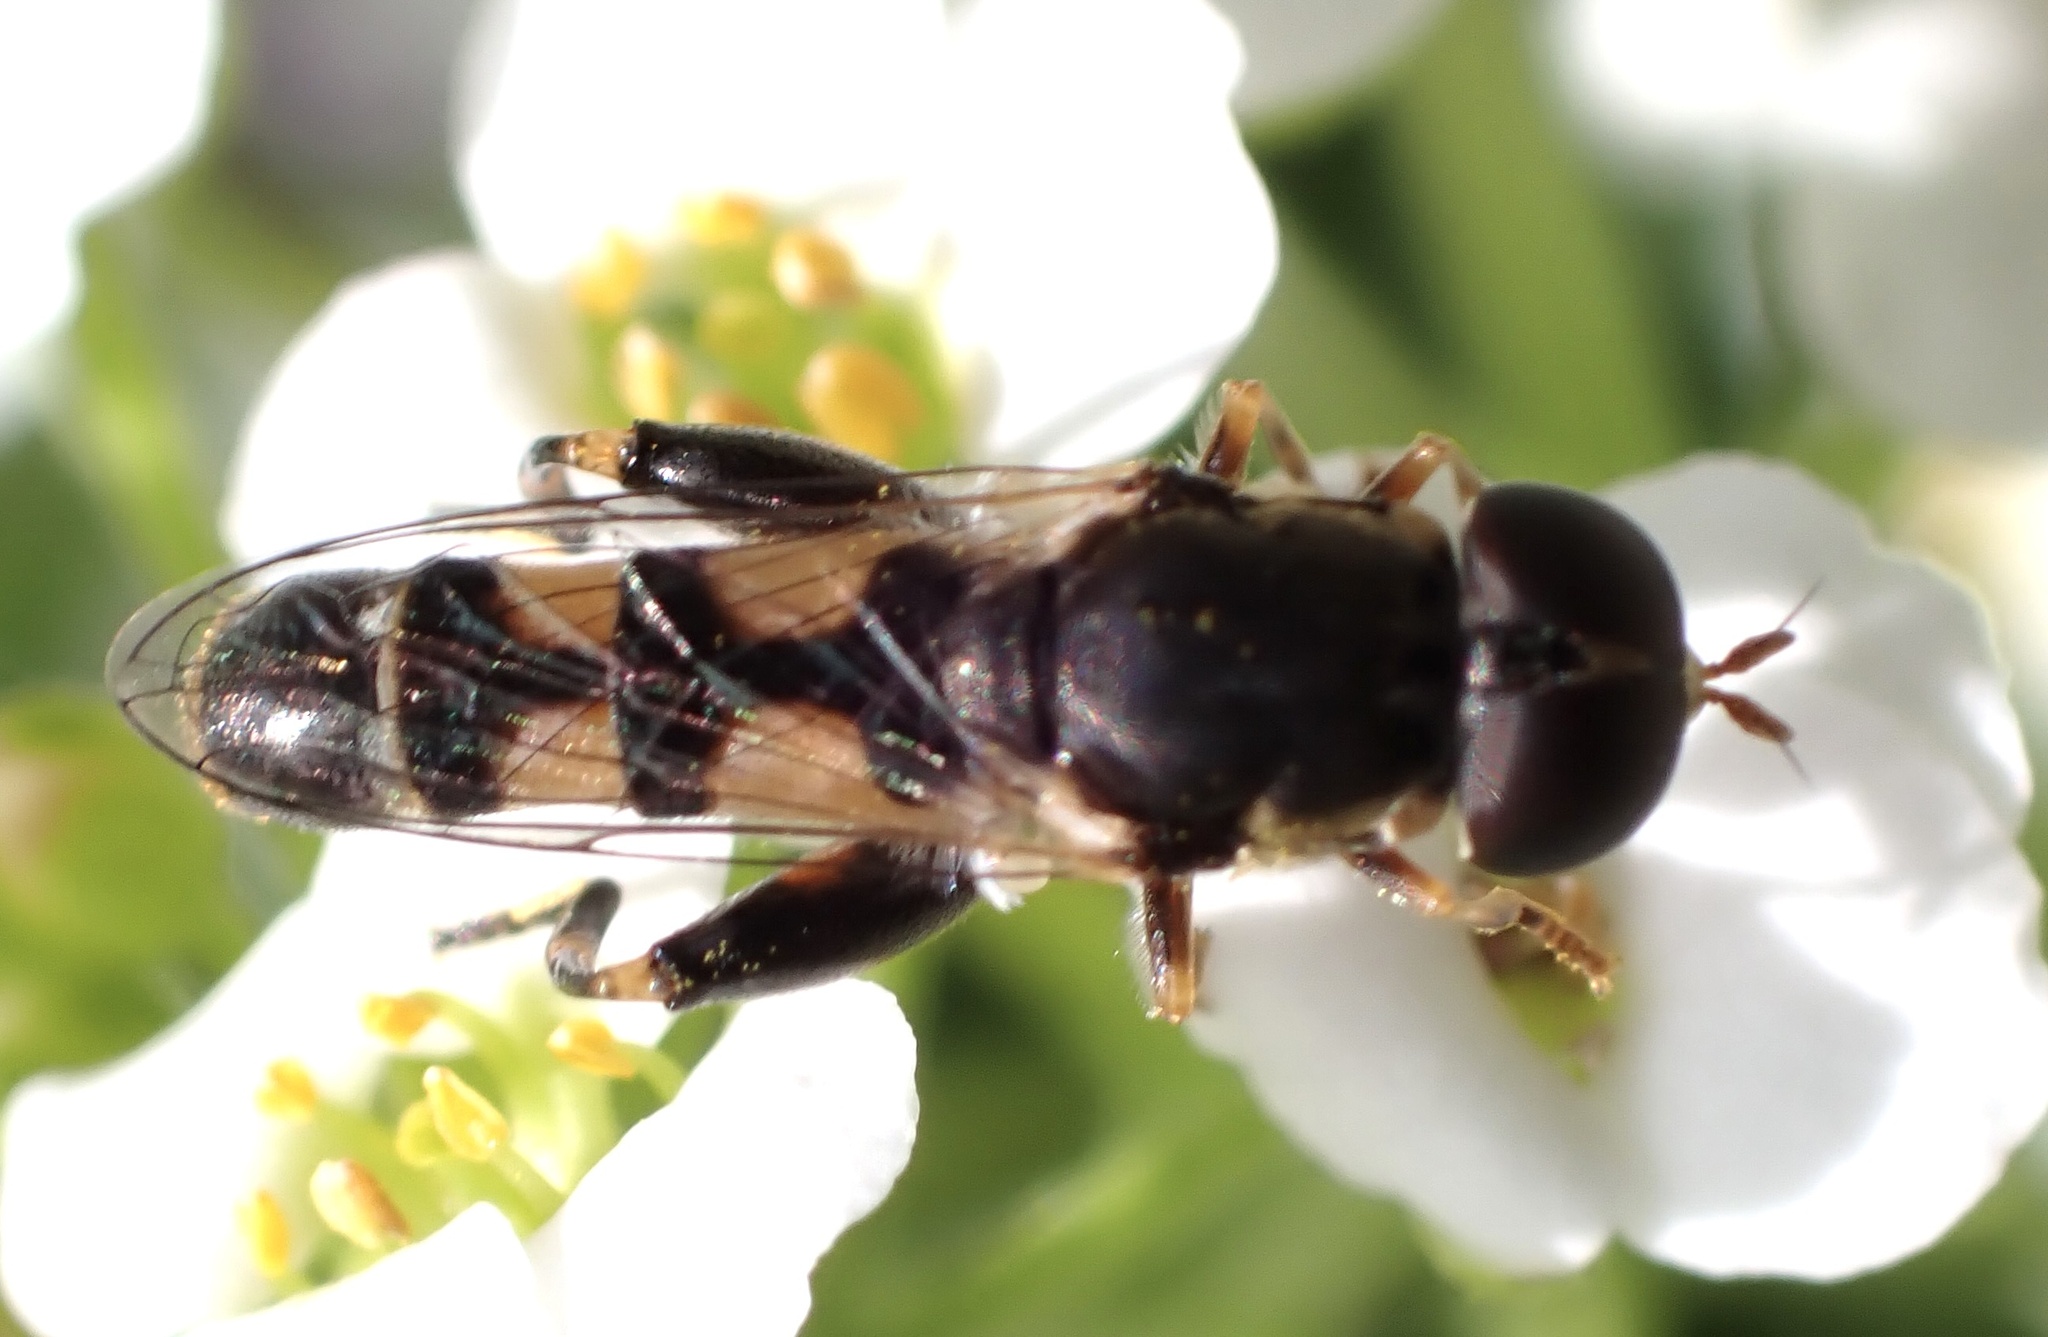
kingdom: Animalia
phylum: Arthropoda
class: Insecta
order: Diptera
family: Syrphidae
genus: Syritta
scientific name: Syritta pipiens
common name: Hover fly
